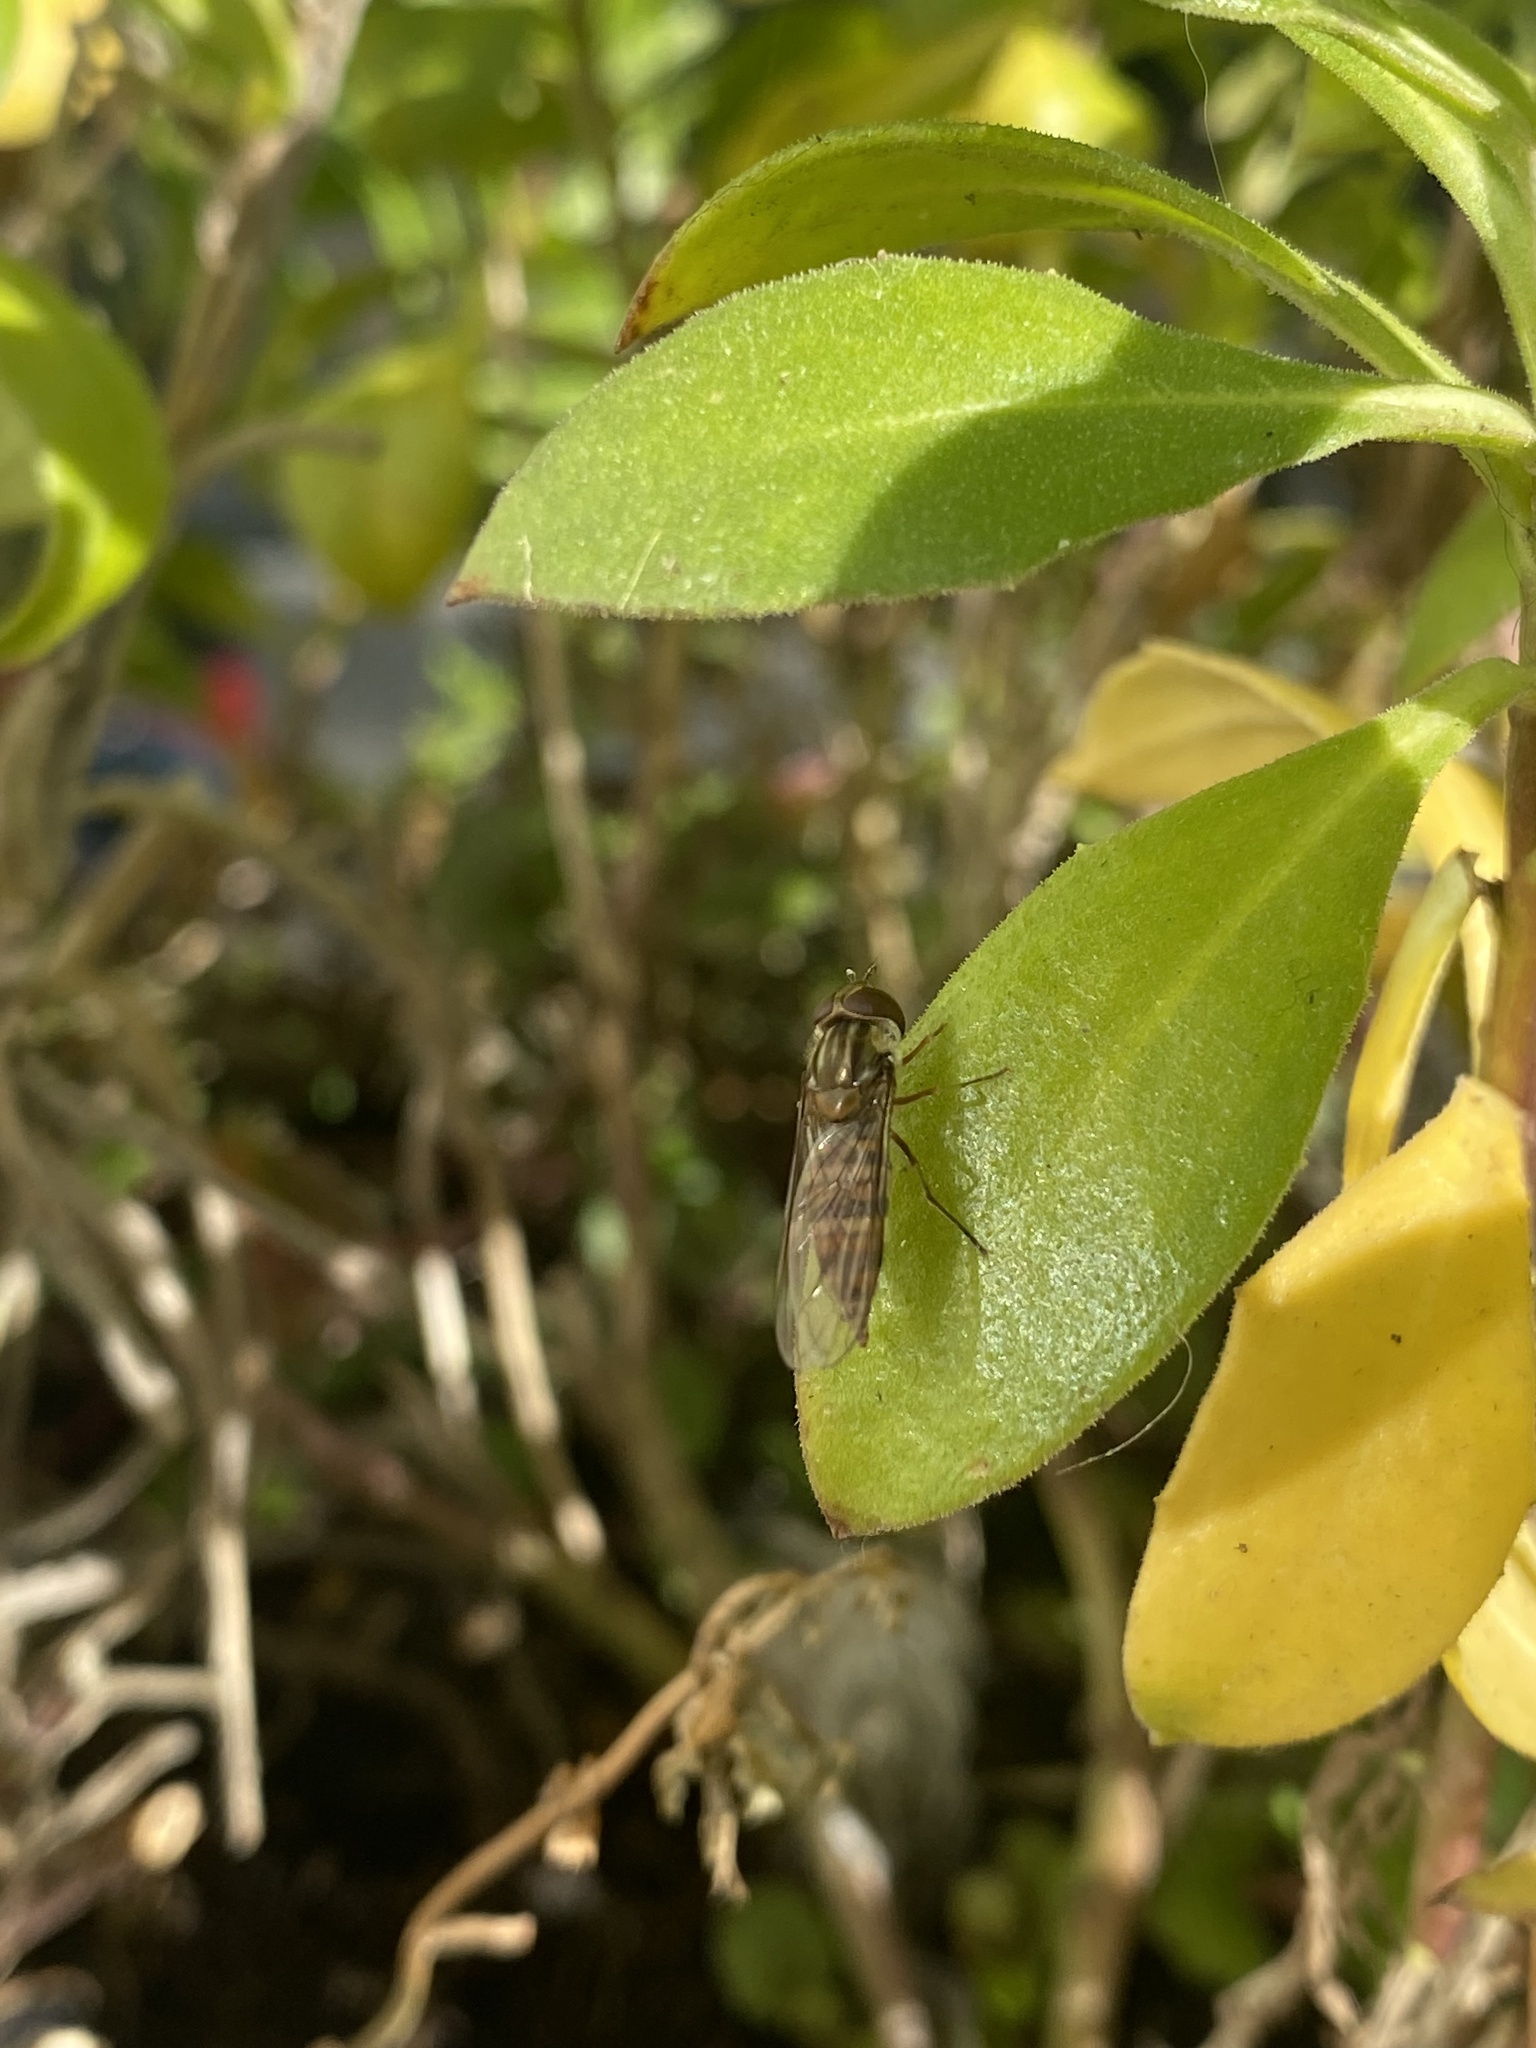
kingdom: Animalia
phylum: Arthropoda
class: Insecta
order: Diptera
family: Syrphidae
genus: Episyrphus
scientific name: Episyrphus balteatus
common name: Marmalade hoverfly
